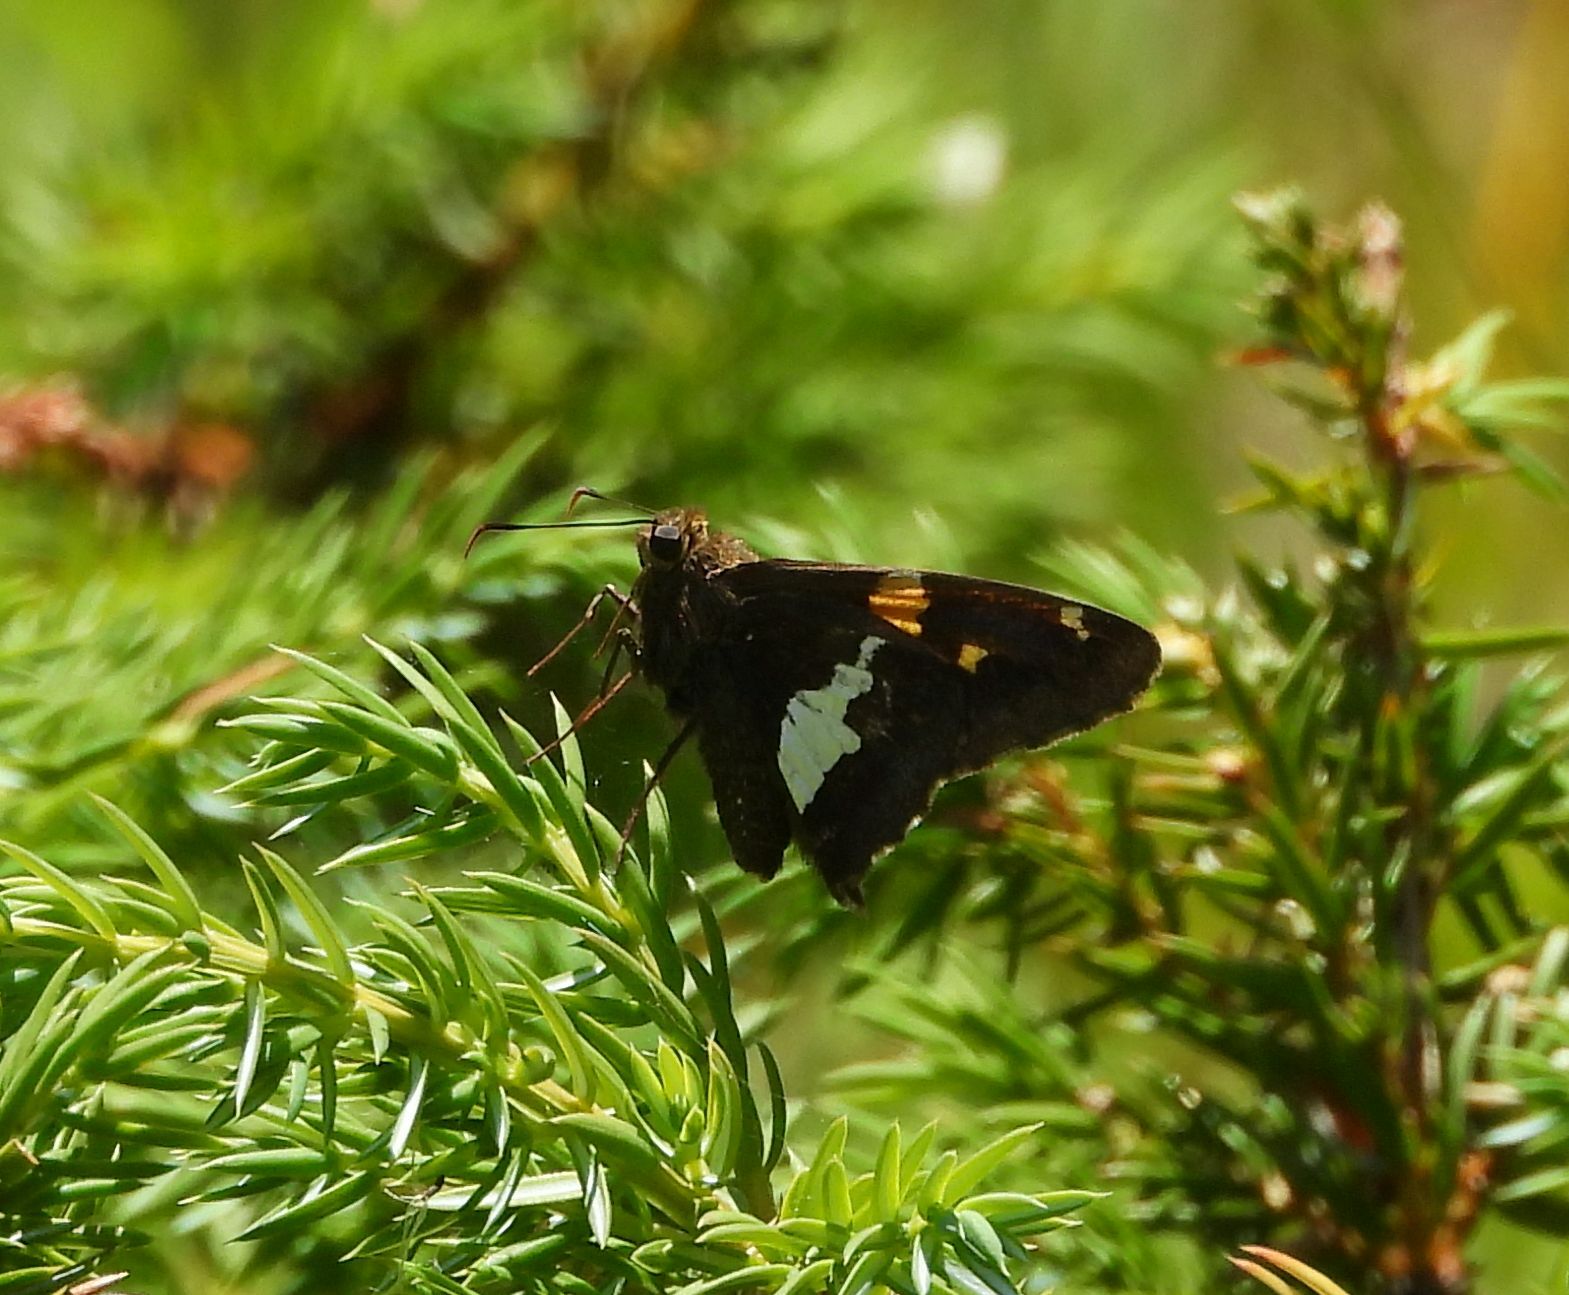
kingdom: Animalia
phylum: Arthropoda
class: Insecta
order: Lepidoptera
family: Hesperiidae
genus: Epargyreus
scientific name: Epargyreus clarus
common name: Silver-spotted skipper
